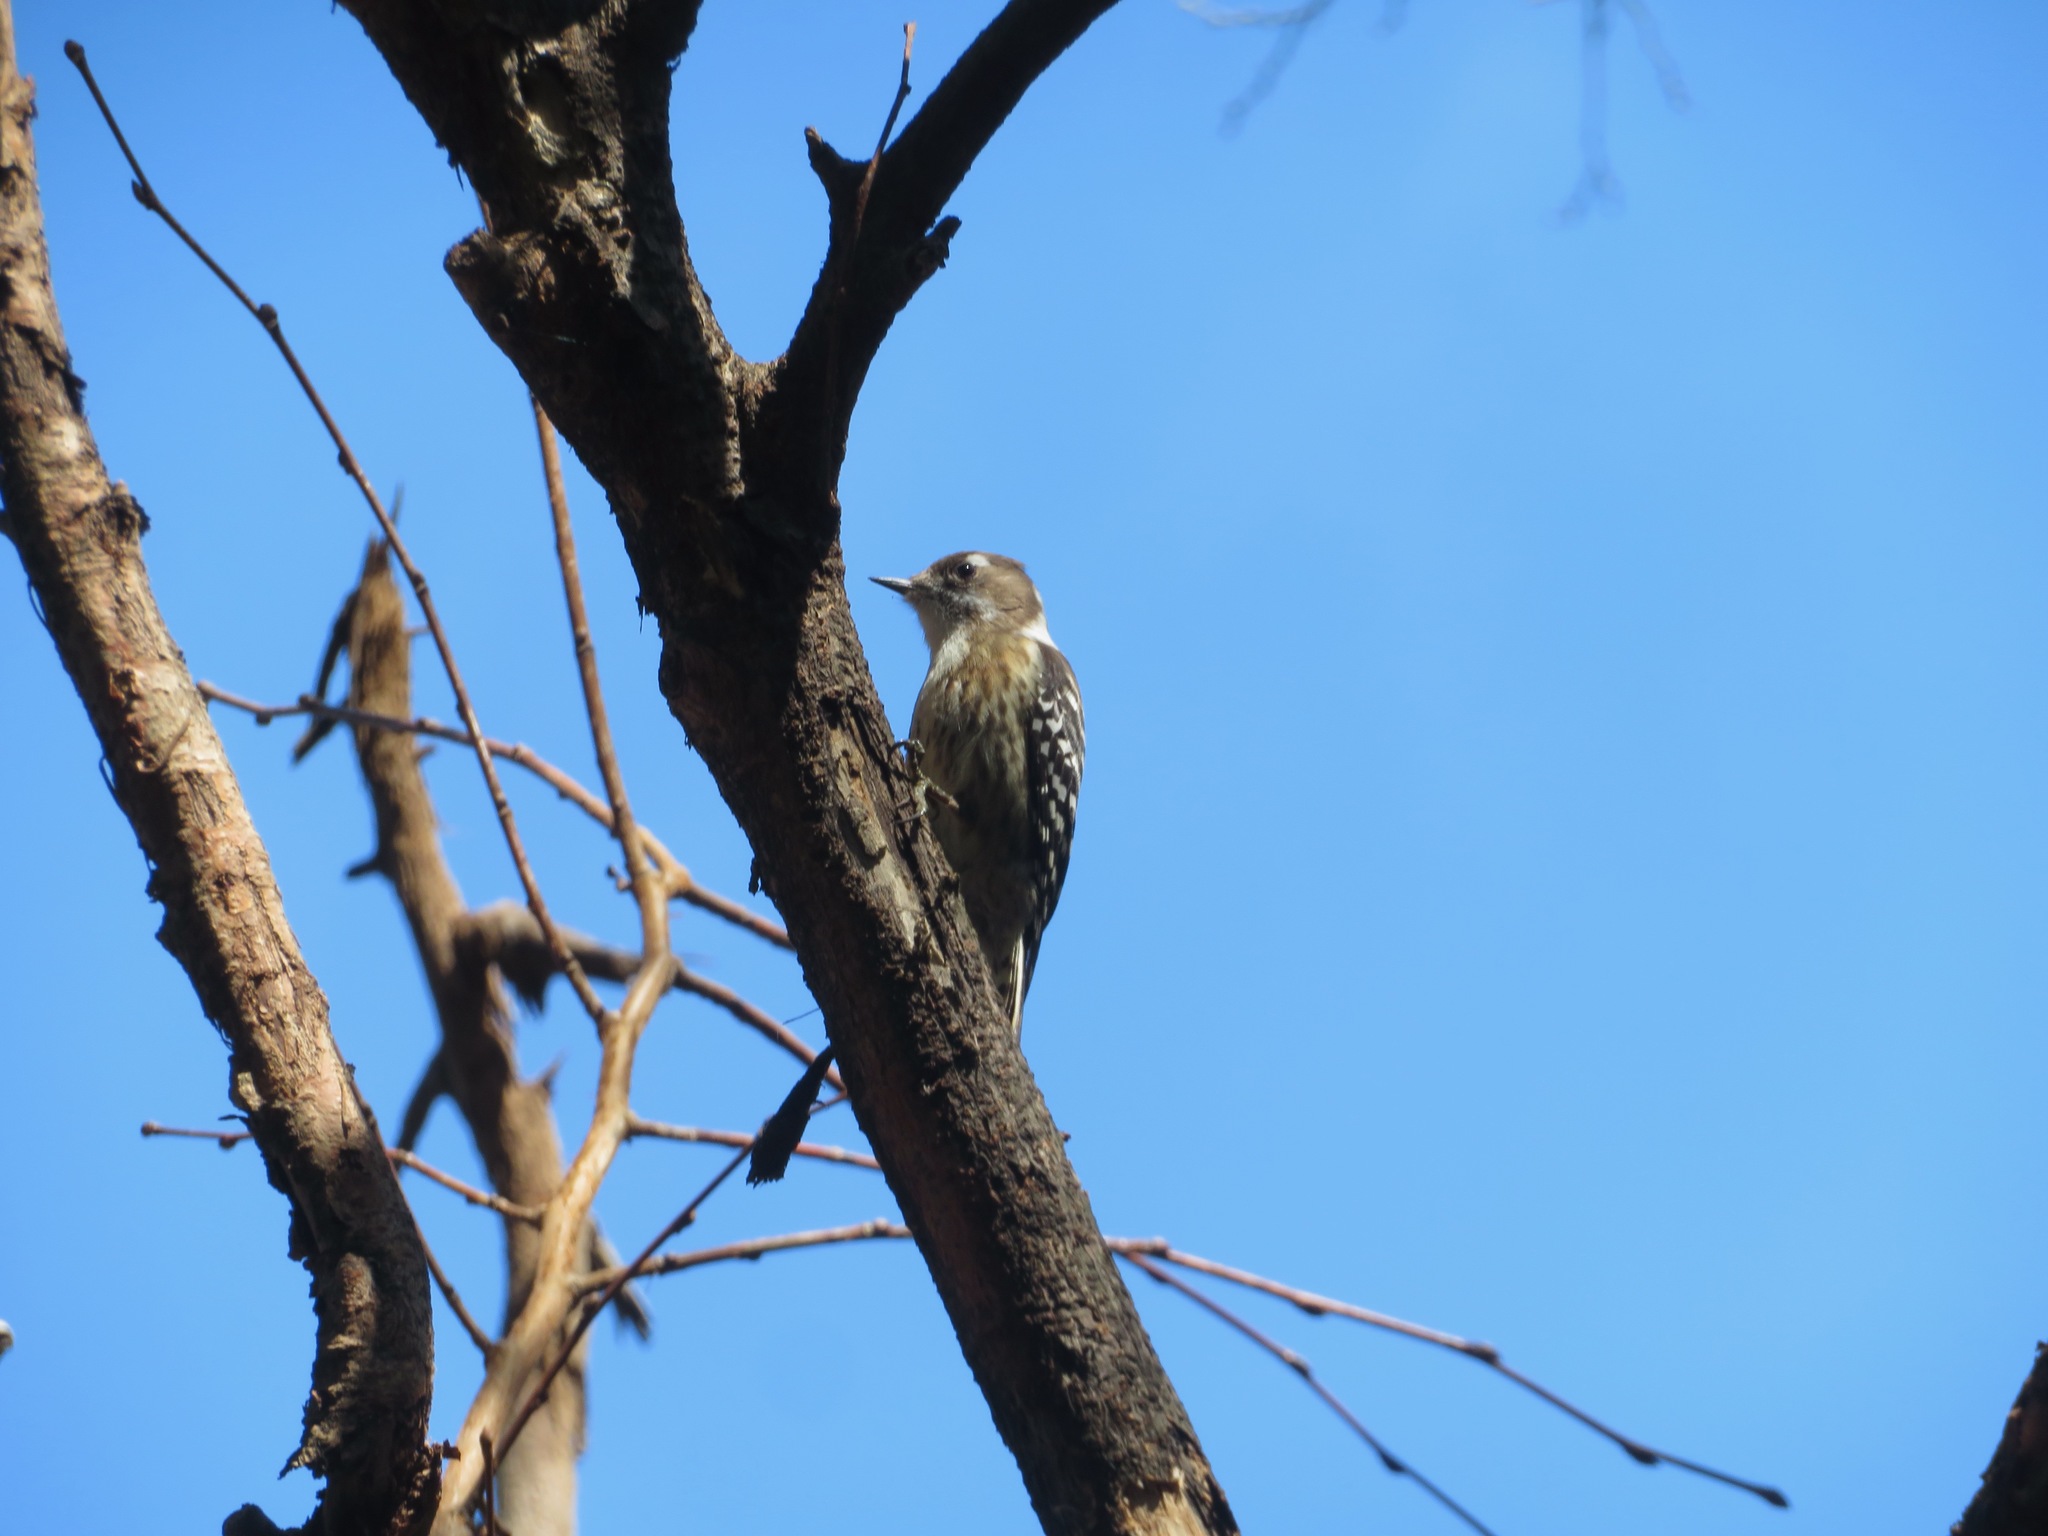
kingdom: Animalia
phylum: Chordata
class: Aves
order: Piciformes
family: Picidae
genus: Yungipicus
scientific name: Yungipicus kizuki
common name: Japanese pygmy woodpecker
